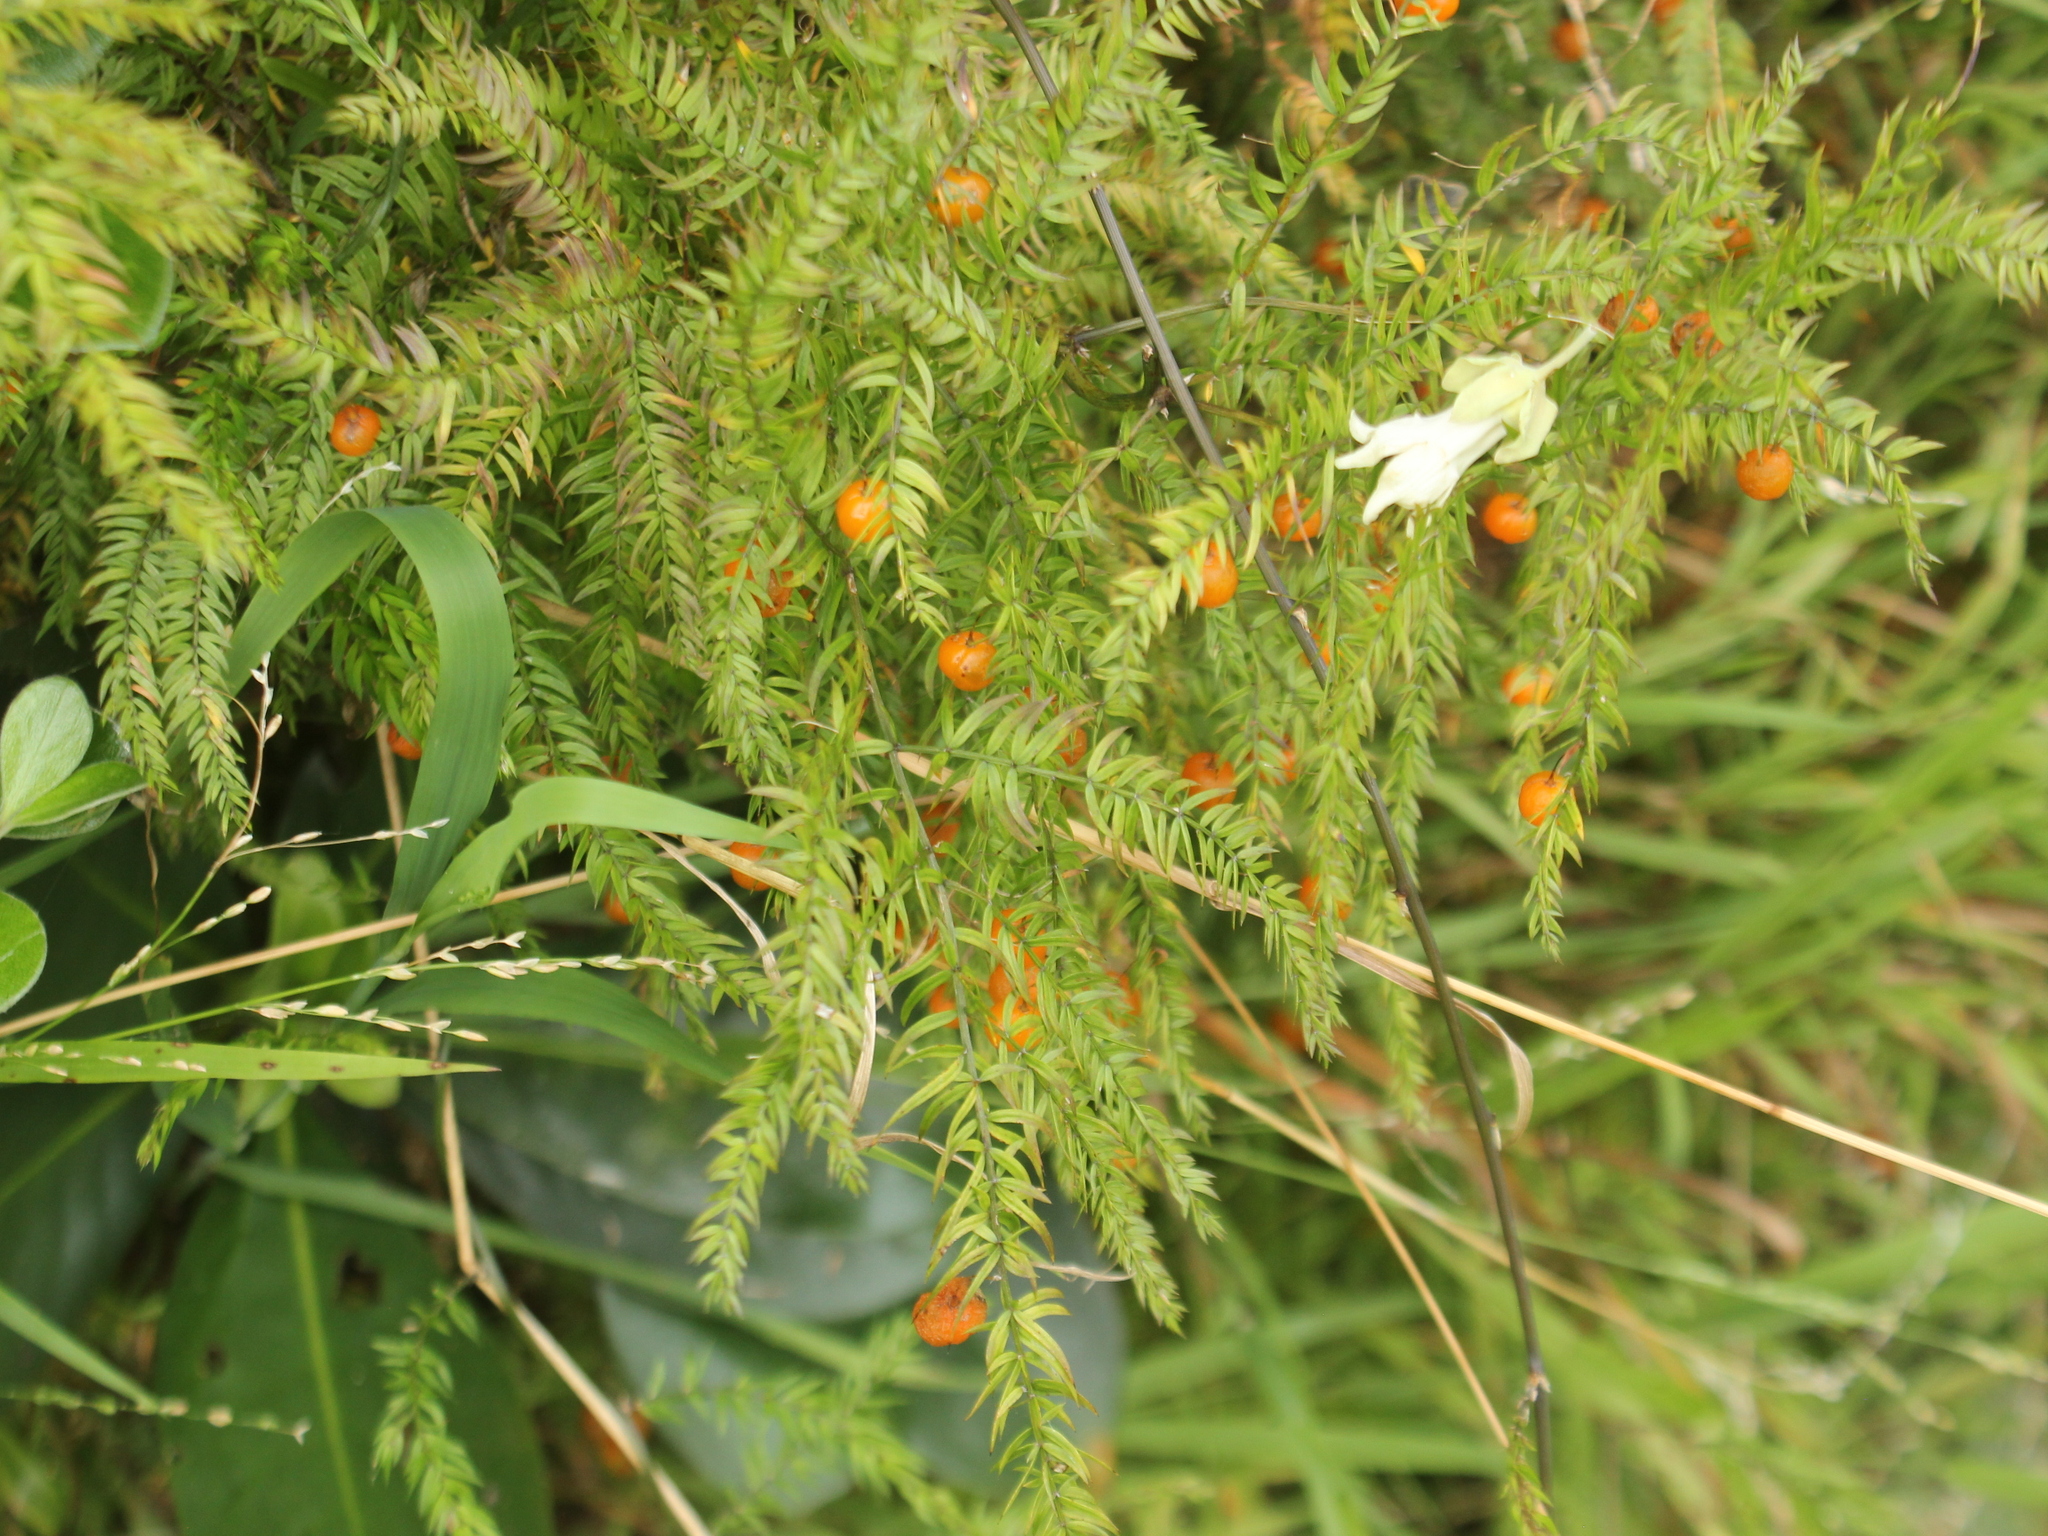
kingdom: Plantae
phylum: Tracheophyta
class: Liliopsida
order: Asparagales
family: Asparagaceae
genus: Asparagus
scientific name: Asparagus scandens
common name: Asparagus-fern
